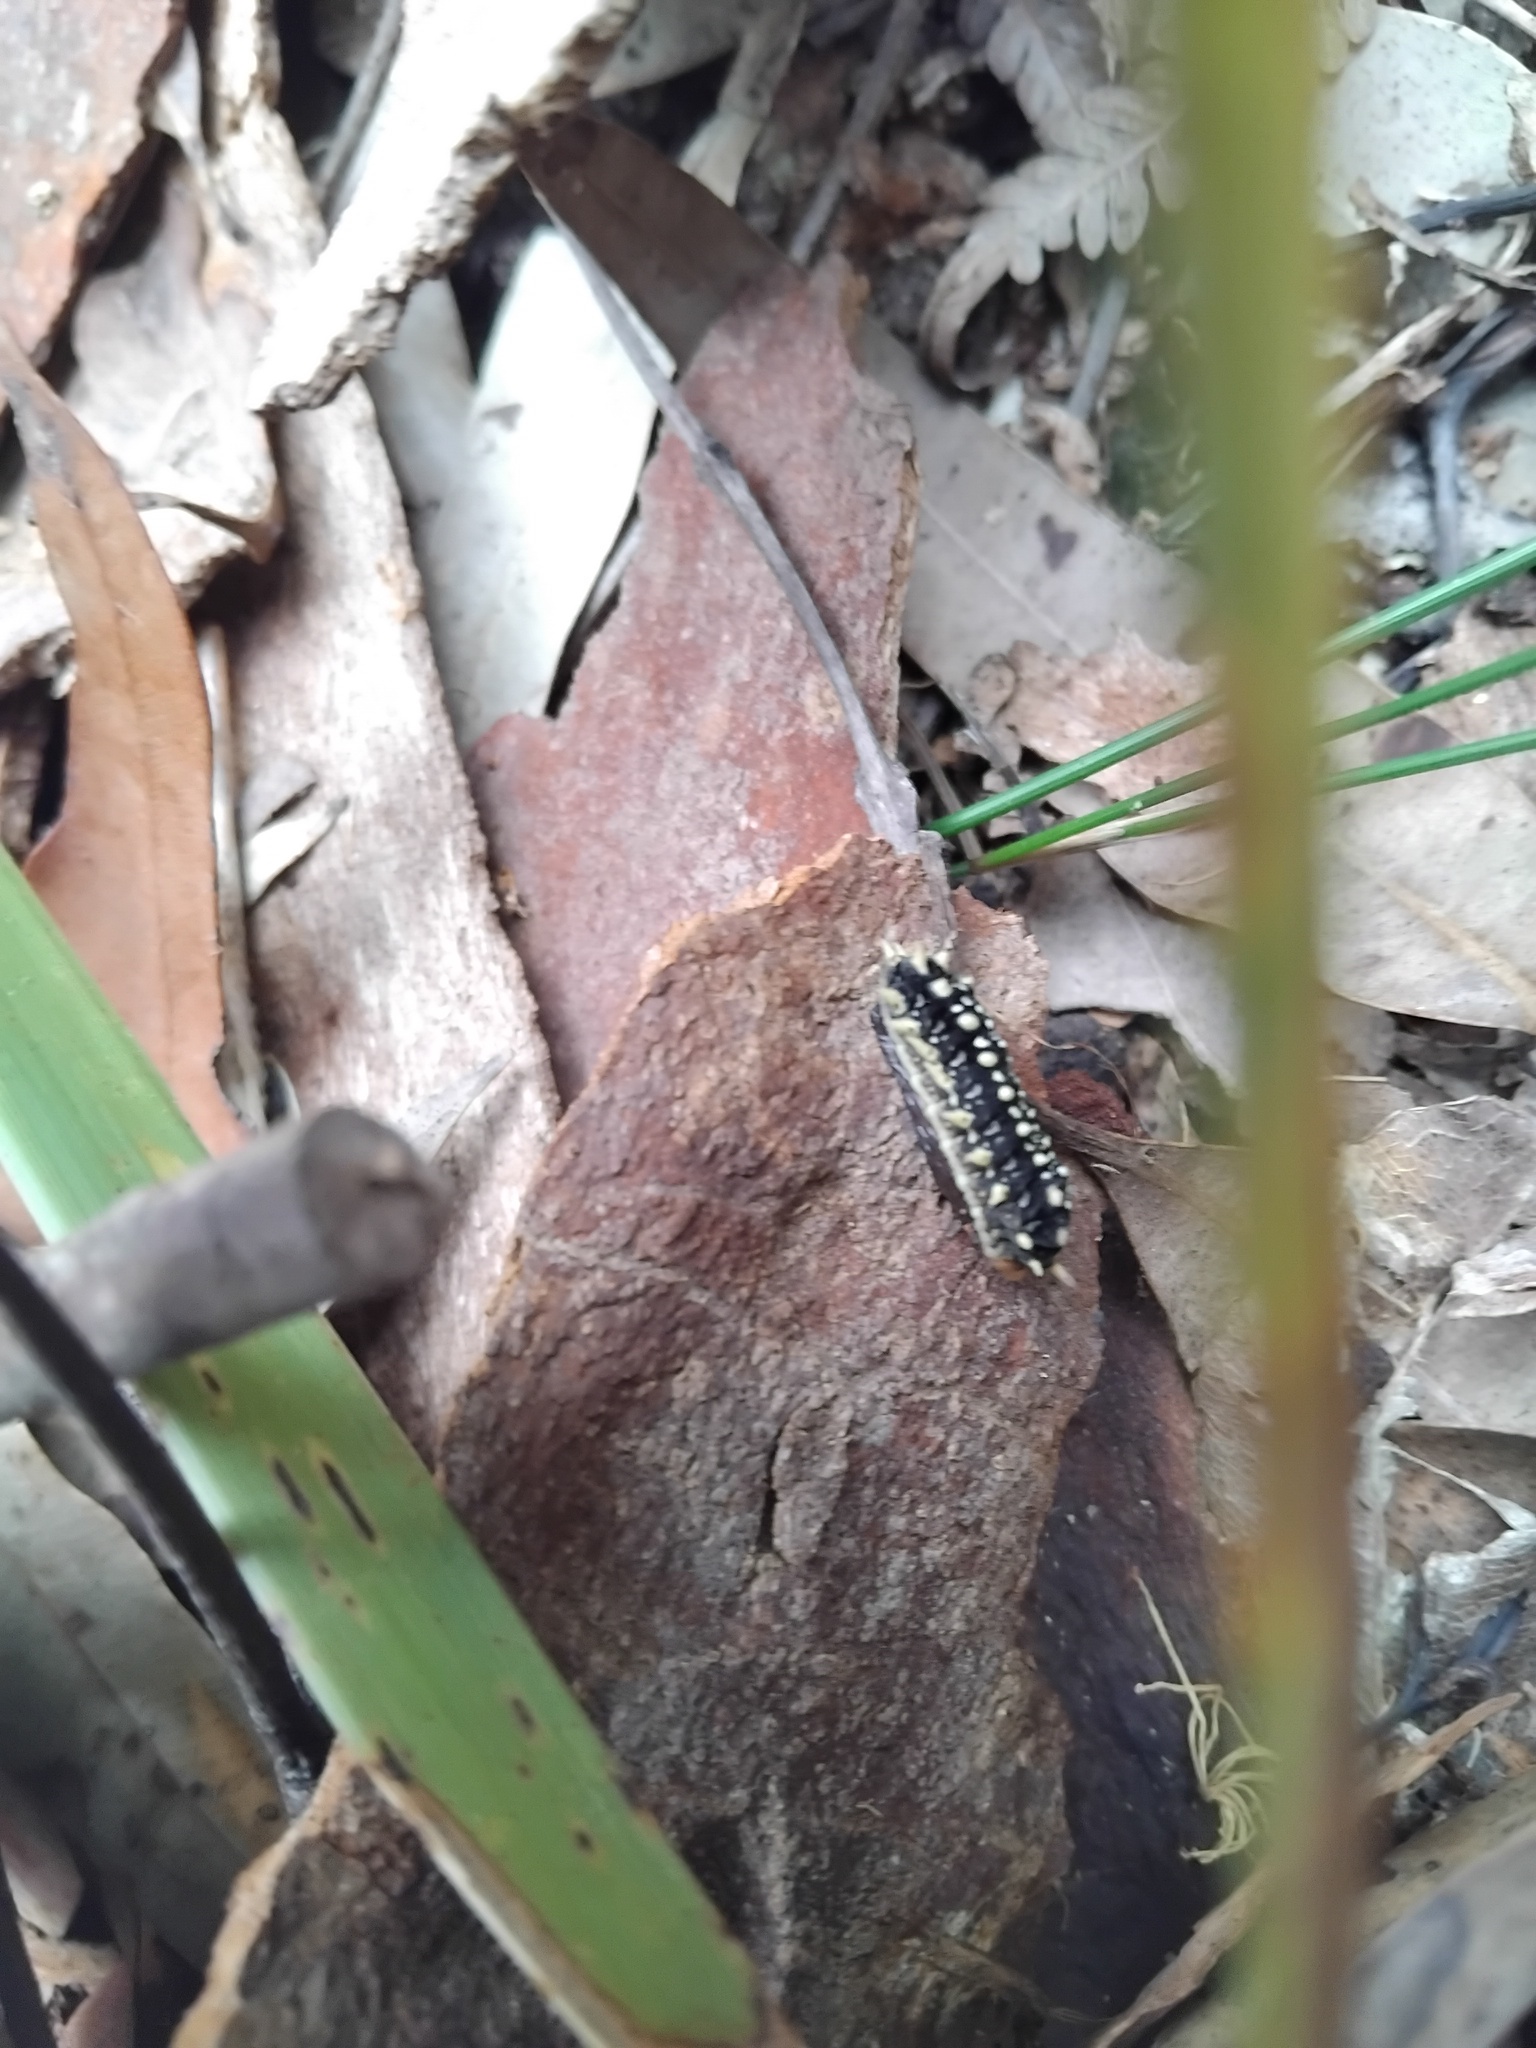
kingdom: Animalia
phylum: Arthropoda
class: Insecta
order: Lepidoptera
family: Limacodidae
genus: Doratifera
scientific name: Doratifera casta
